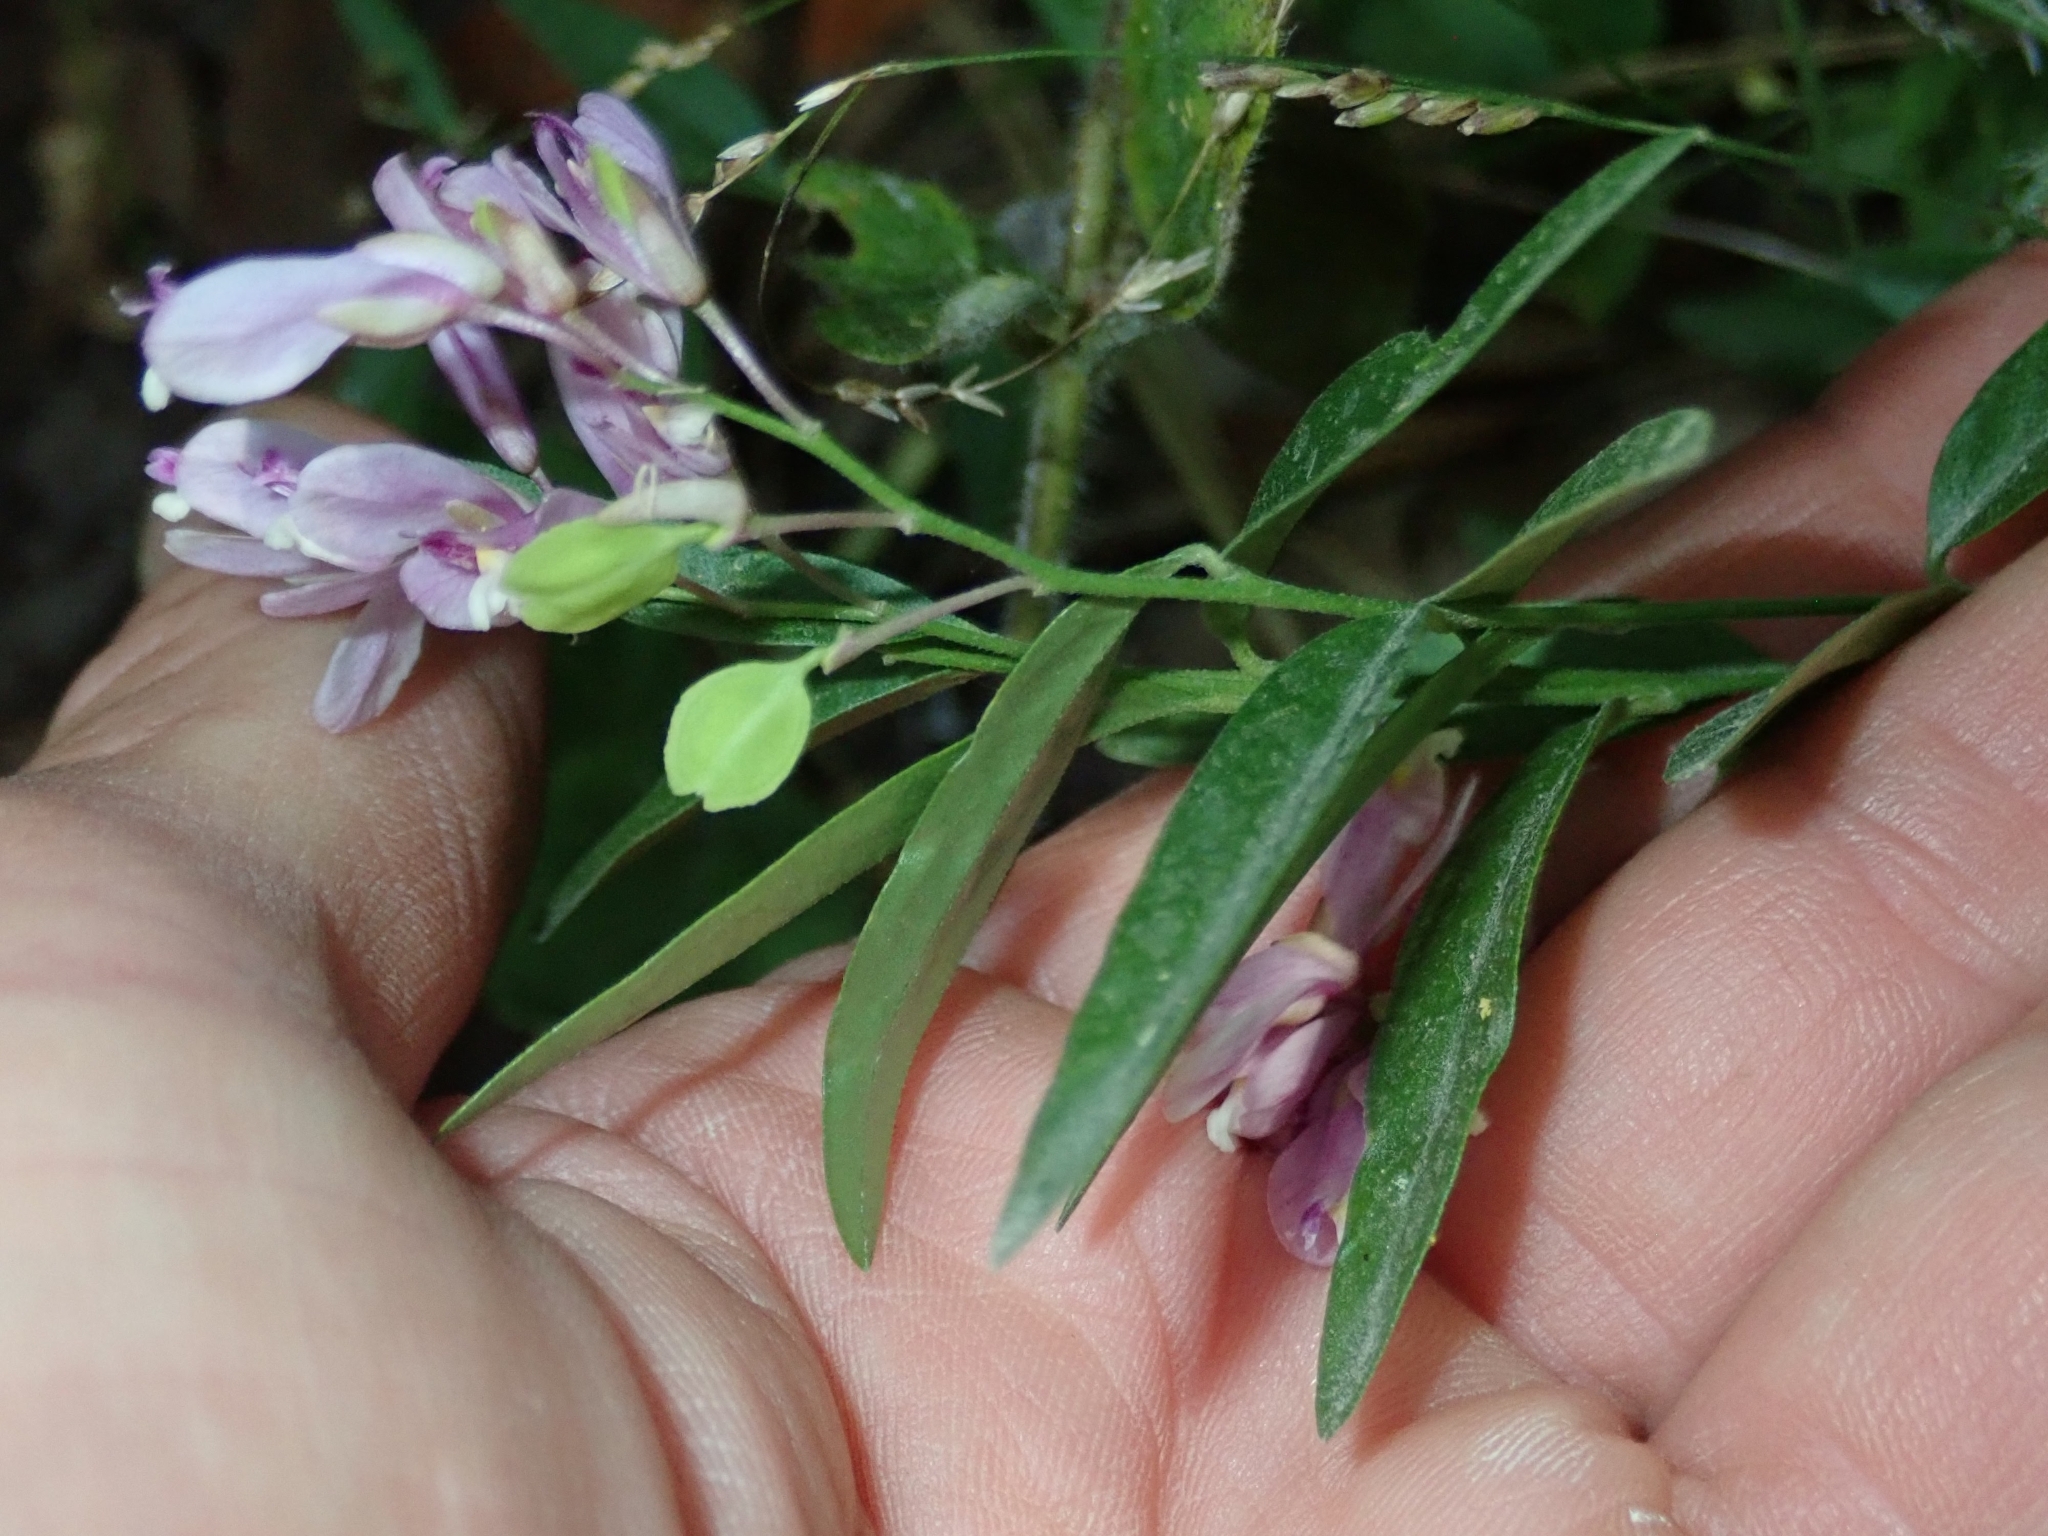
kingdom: Plantae
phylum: Tracheophyta
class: Magnoliopsida
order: Fabales
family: Polygalaceae
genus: Rhinotropis
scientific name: Rhinotropis californica
